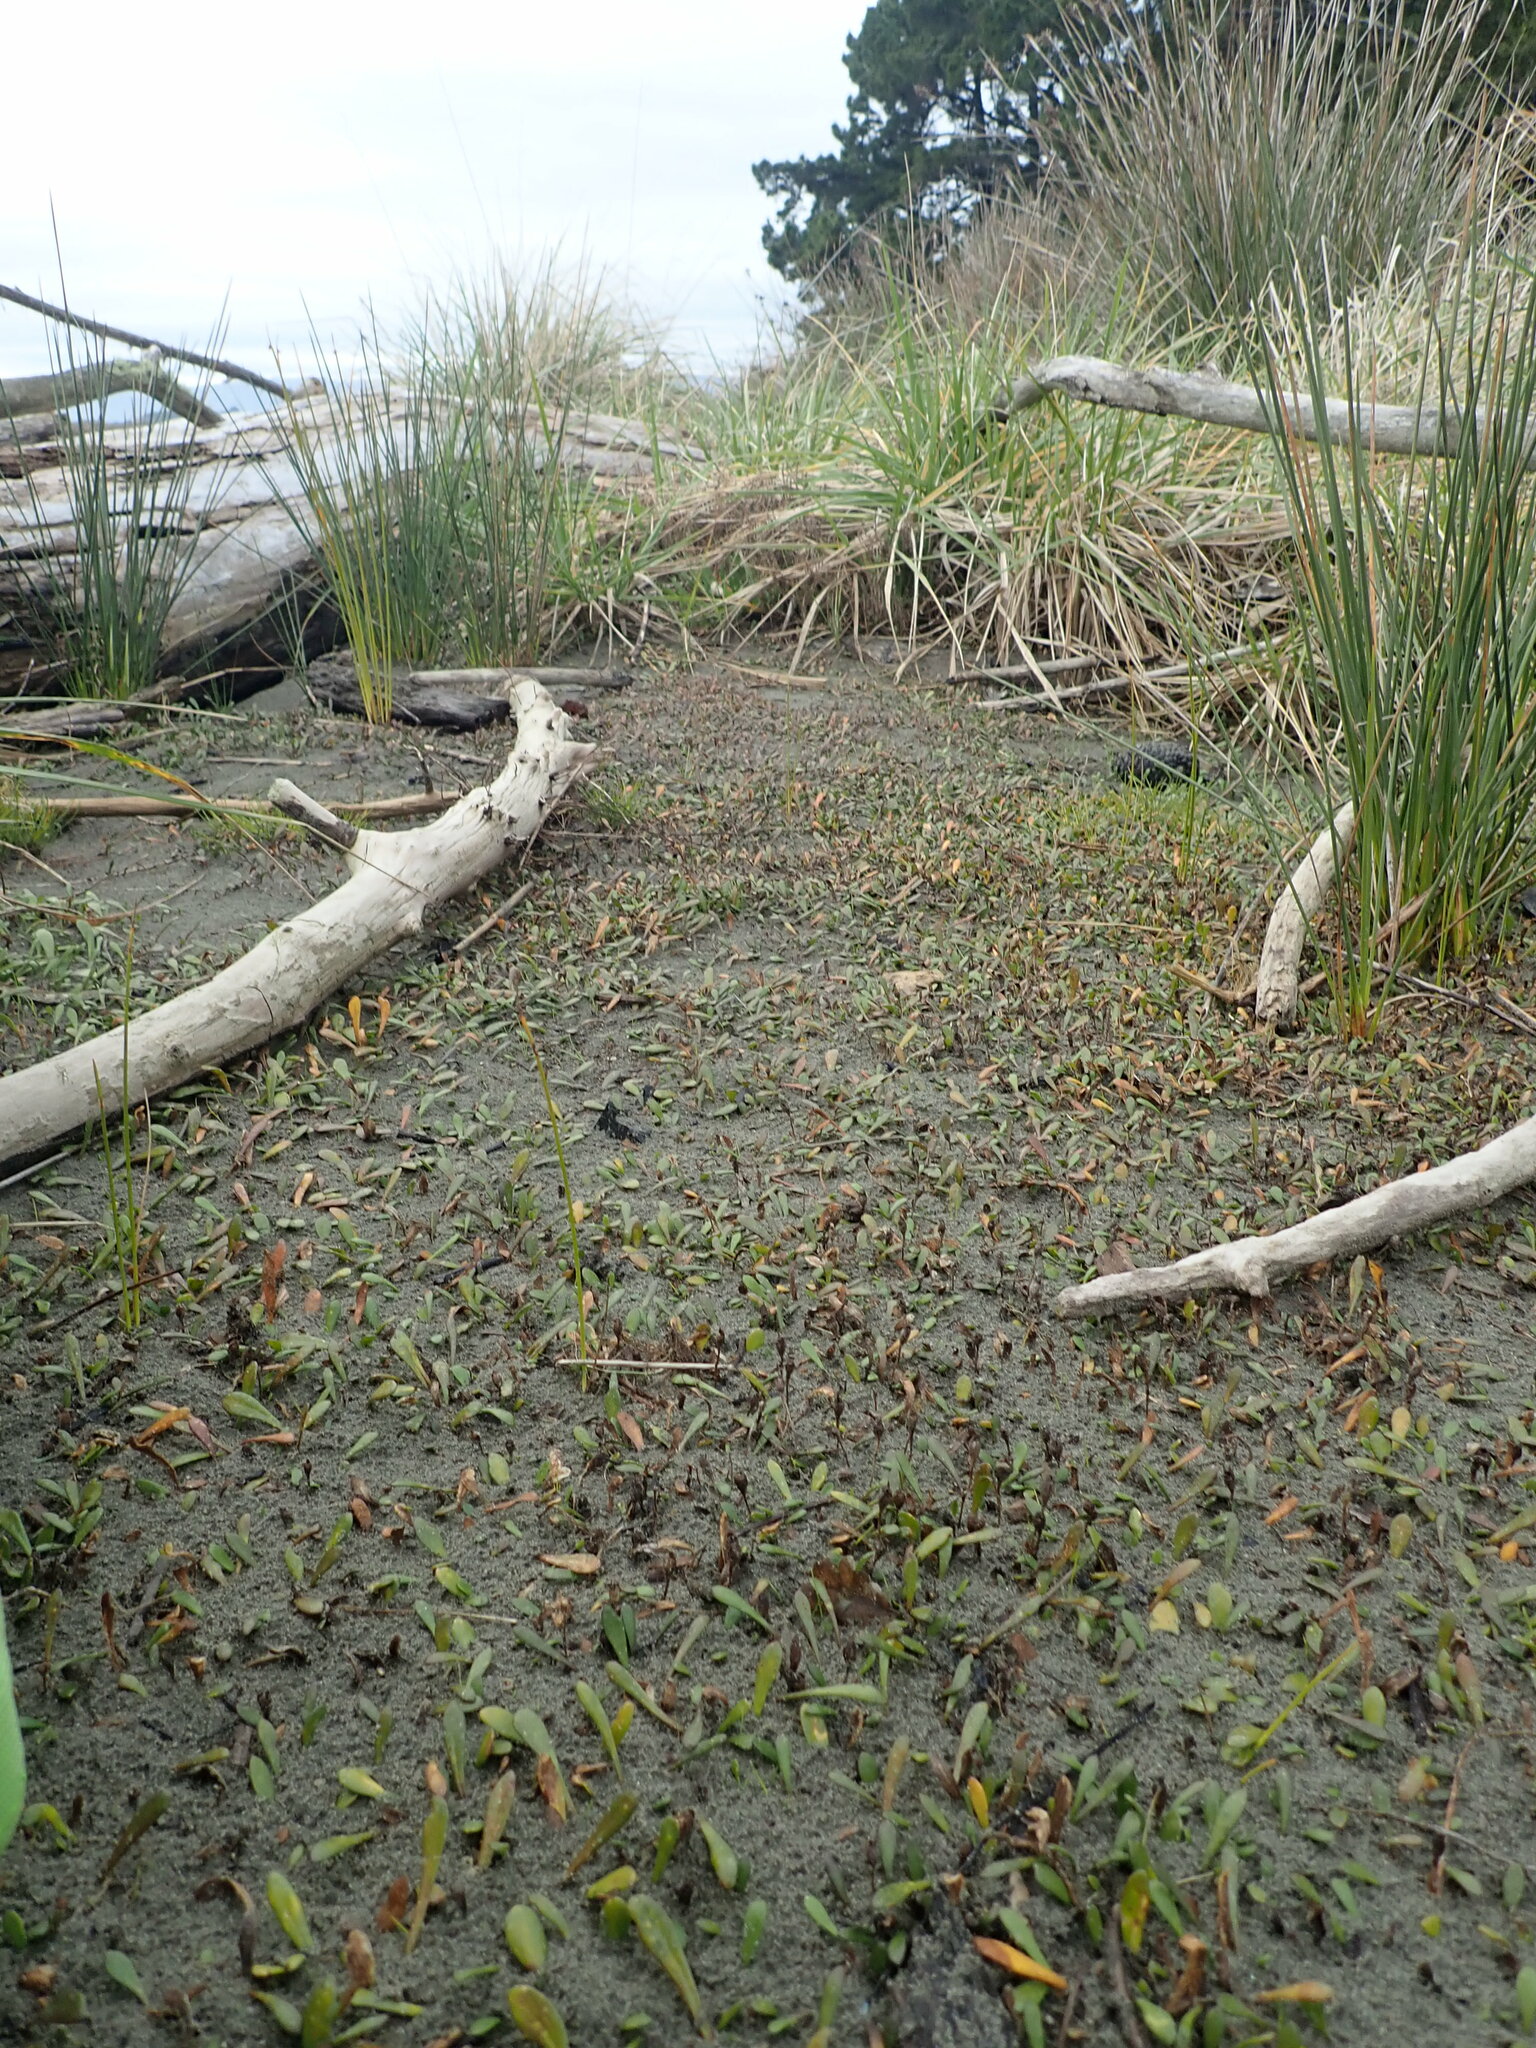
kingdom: Plantae
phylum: Tracheophyta
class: Magnoliopsida
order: Asterales
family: Goodeniaceae
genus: Goodenia
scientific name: Goodenia radicans
